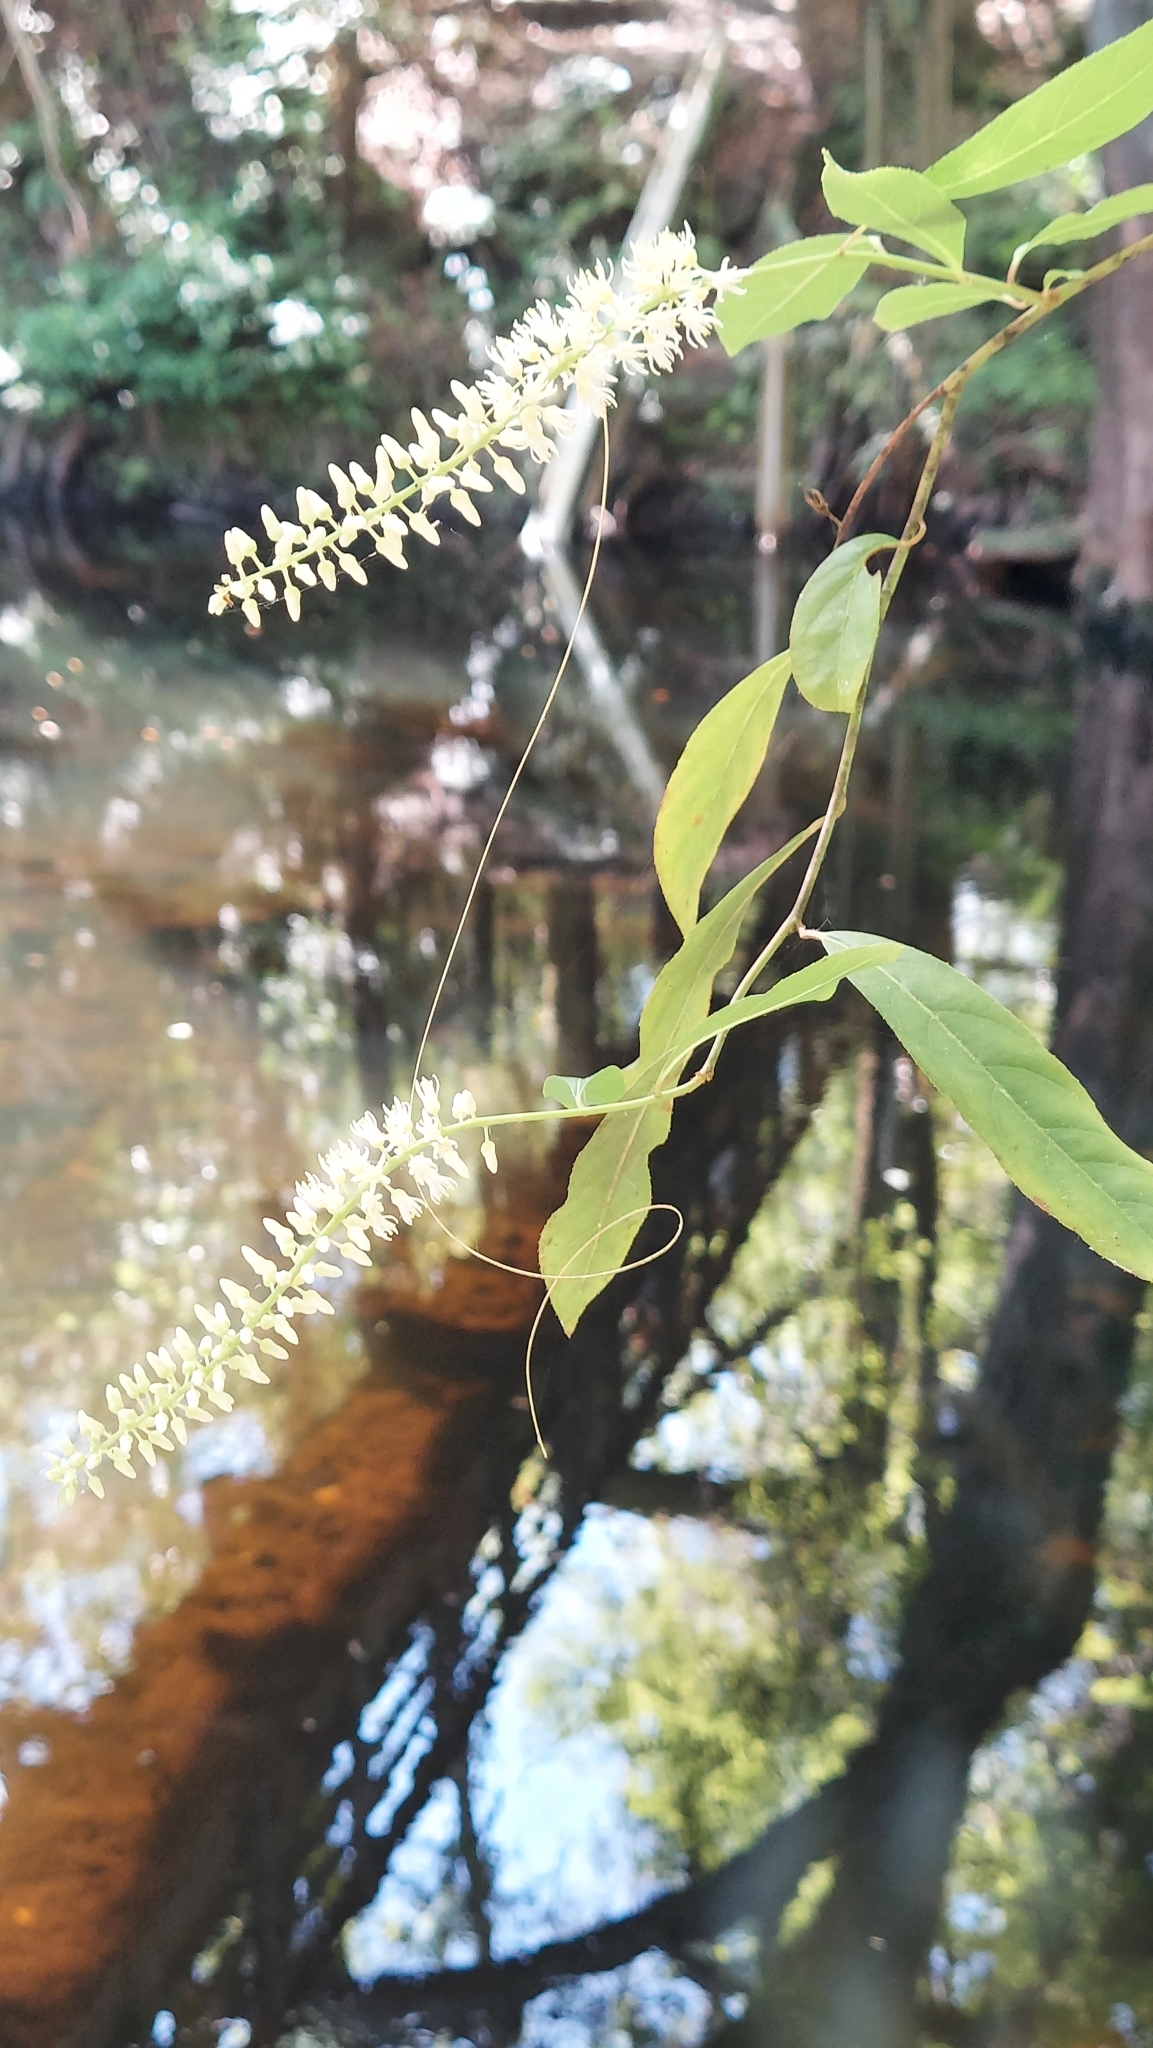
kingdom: Plantae
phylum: Tracheophyta
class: Magnoliopsida
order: Saxifragales
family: Iteaceae
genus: Itea
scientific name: Itea virginica
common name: Sweetspire
